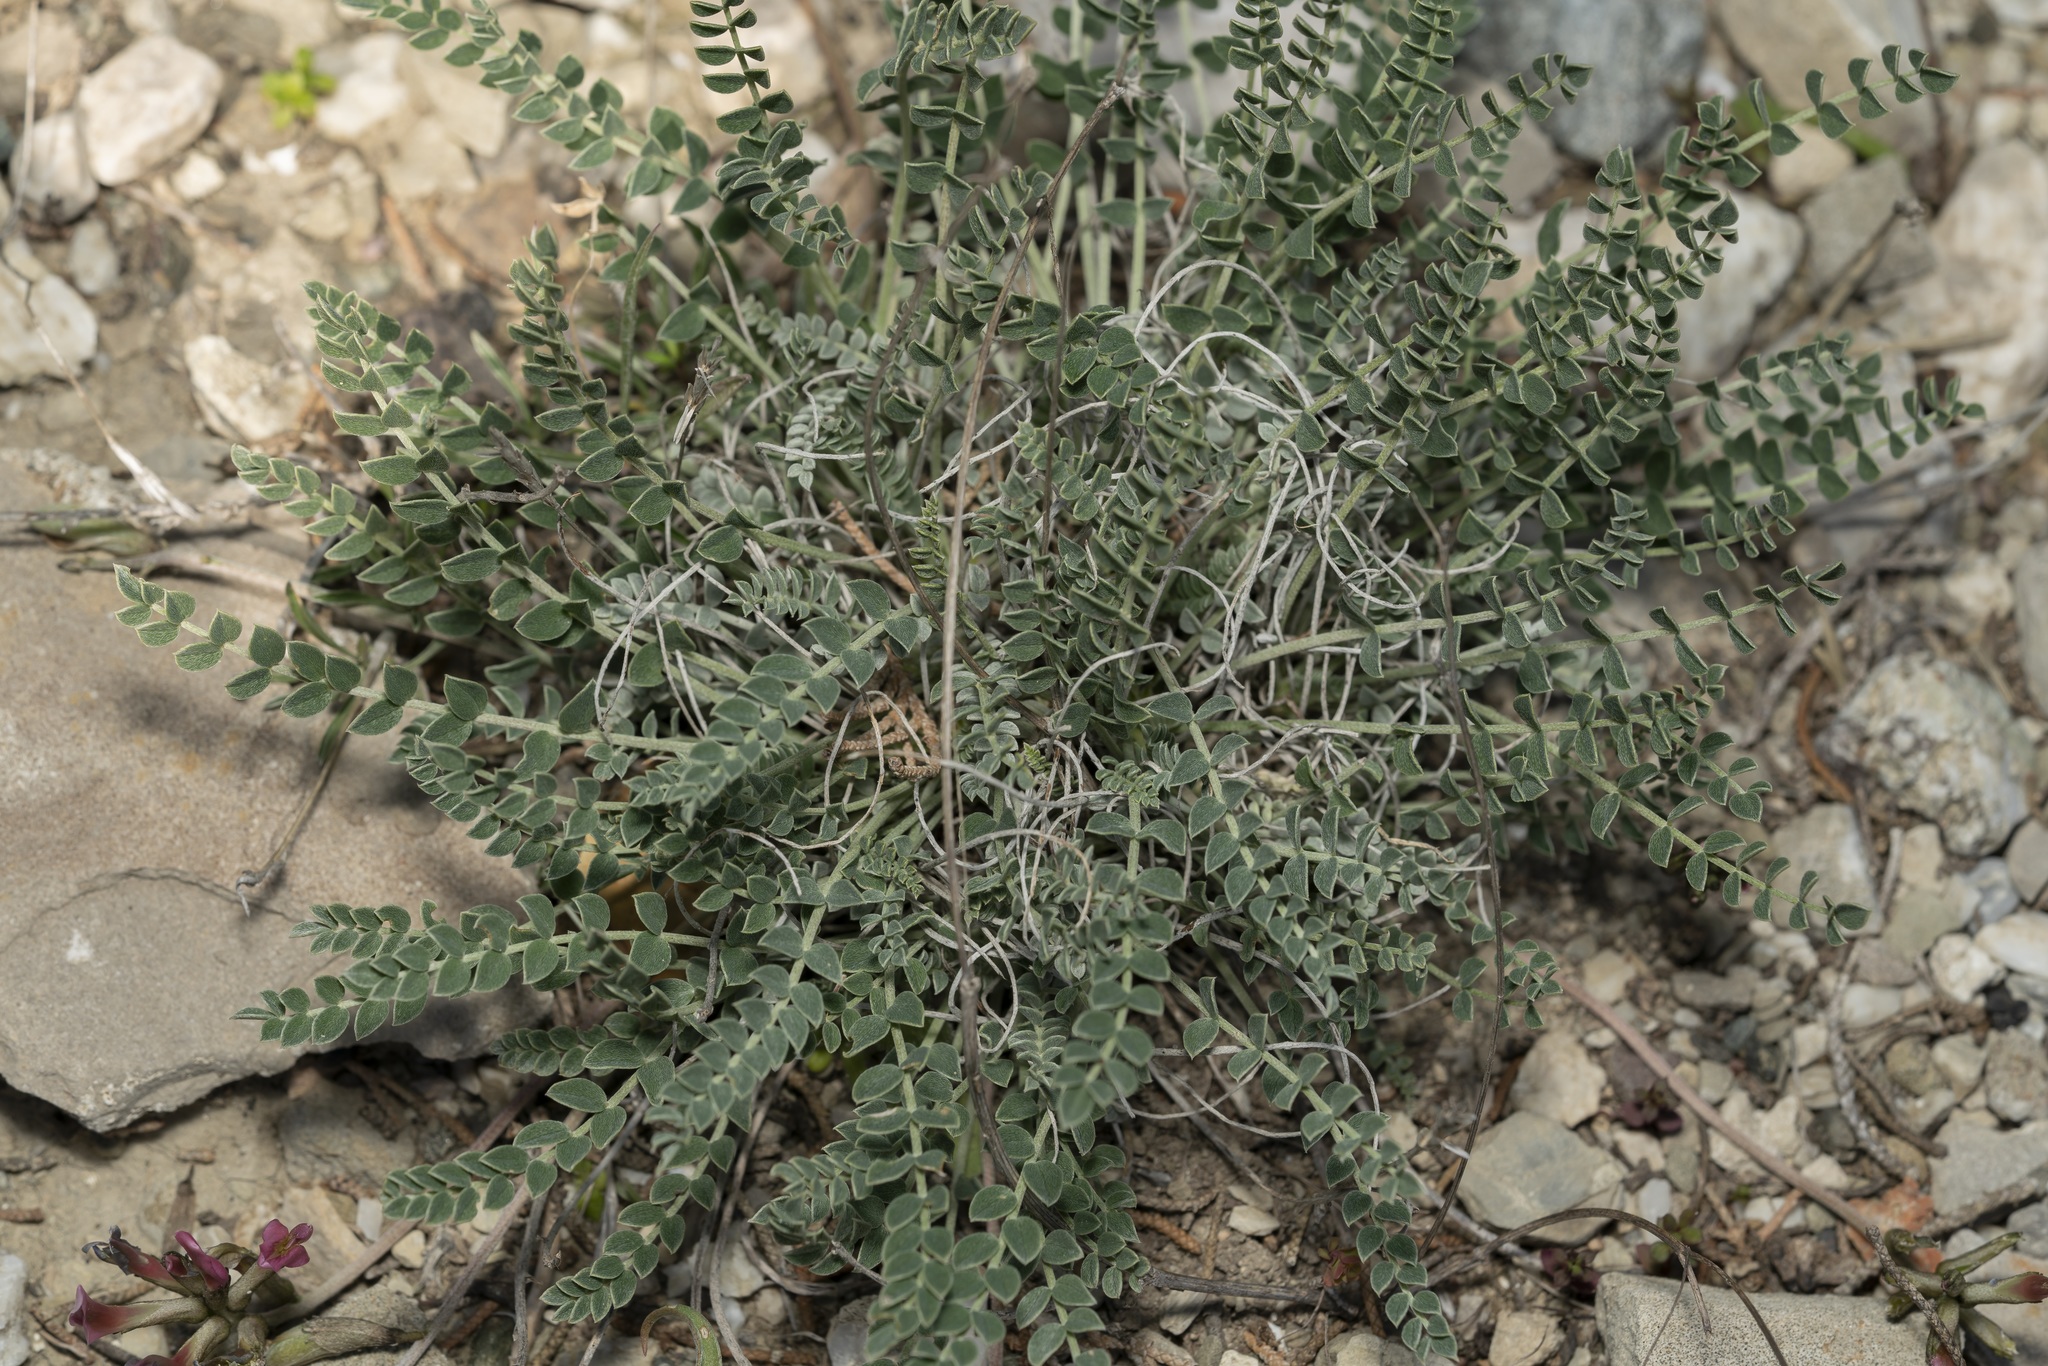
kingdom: Plantae
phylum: Tracheophyta
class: Magnoliopsida
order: Fabales
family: Fabaceae
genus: Astragalus
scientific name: Astragalus spruneri
